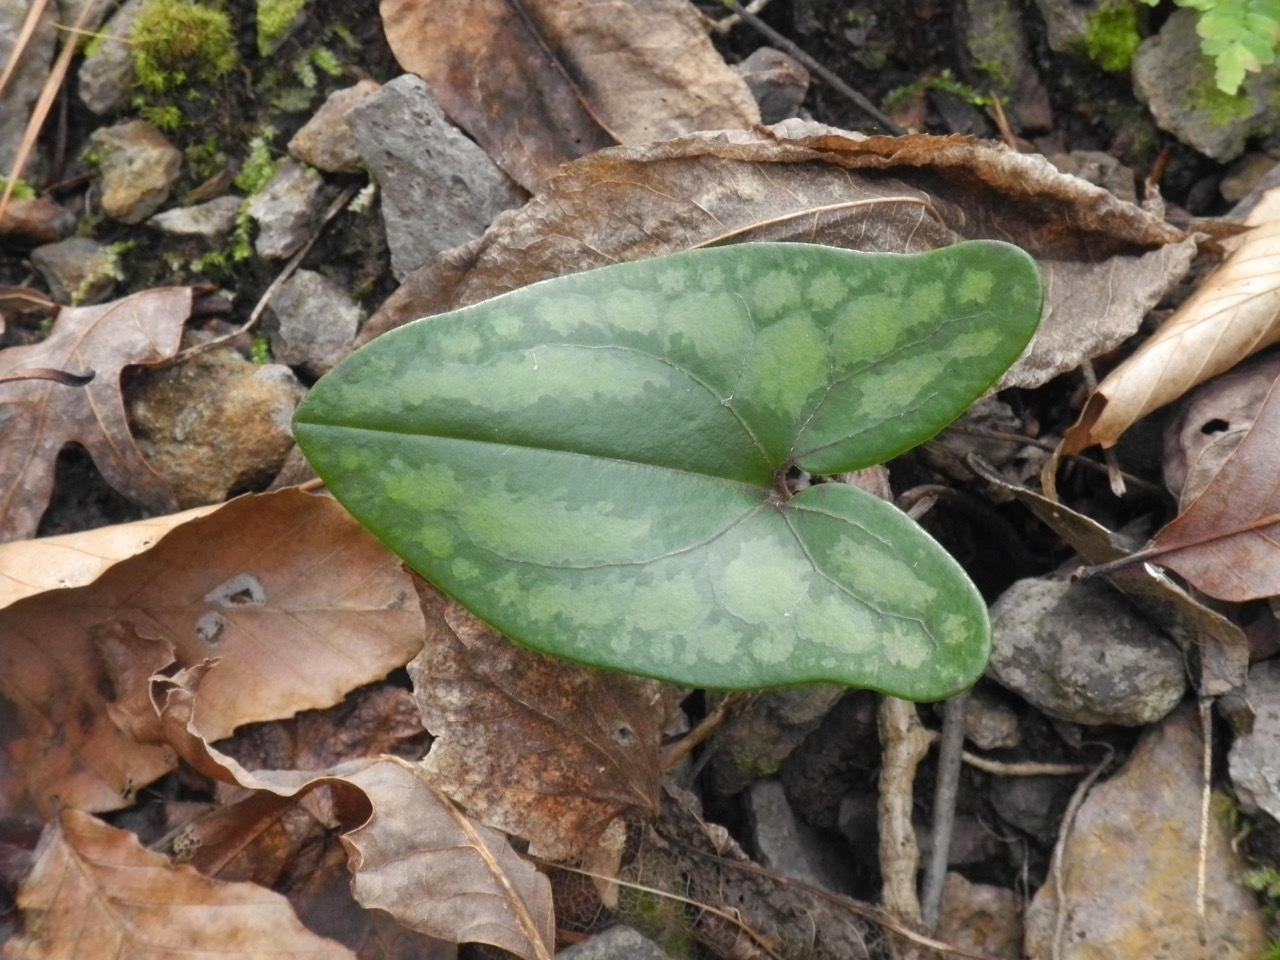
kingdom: Plantae
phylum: Tracheophyta
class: Magnoliopsida
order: Piperales
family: Aristolochiaceae
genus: Hexastylis
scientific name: Hexastylis arifolia
